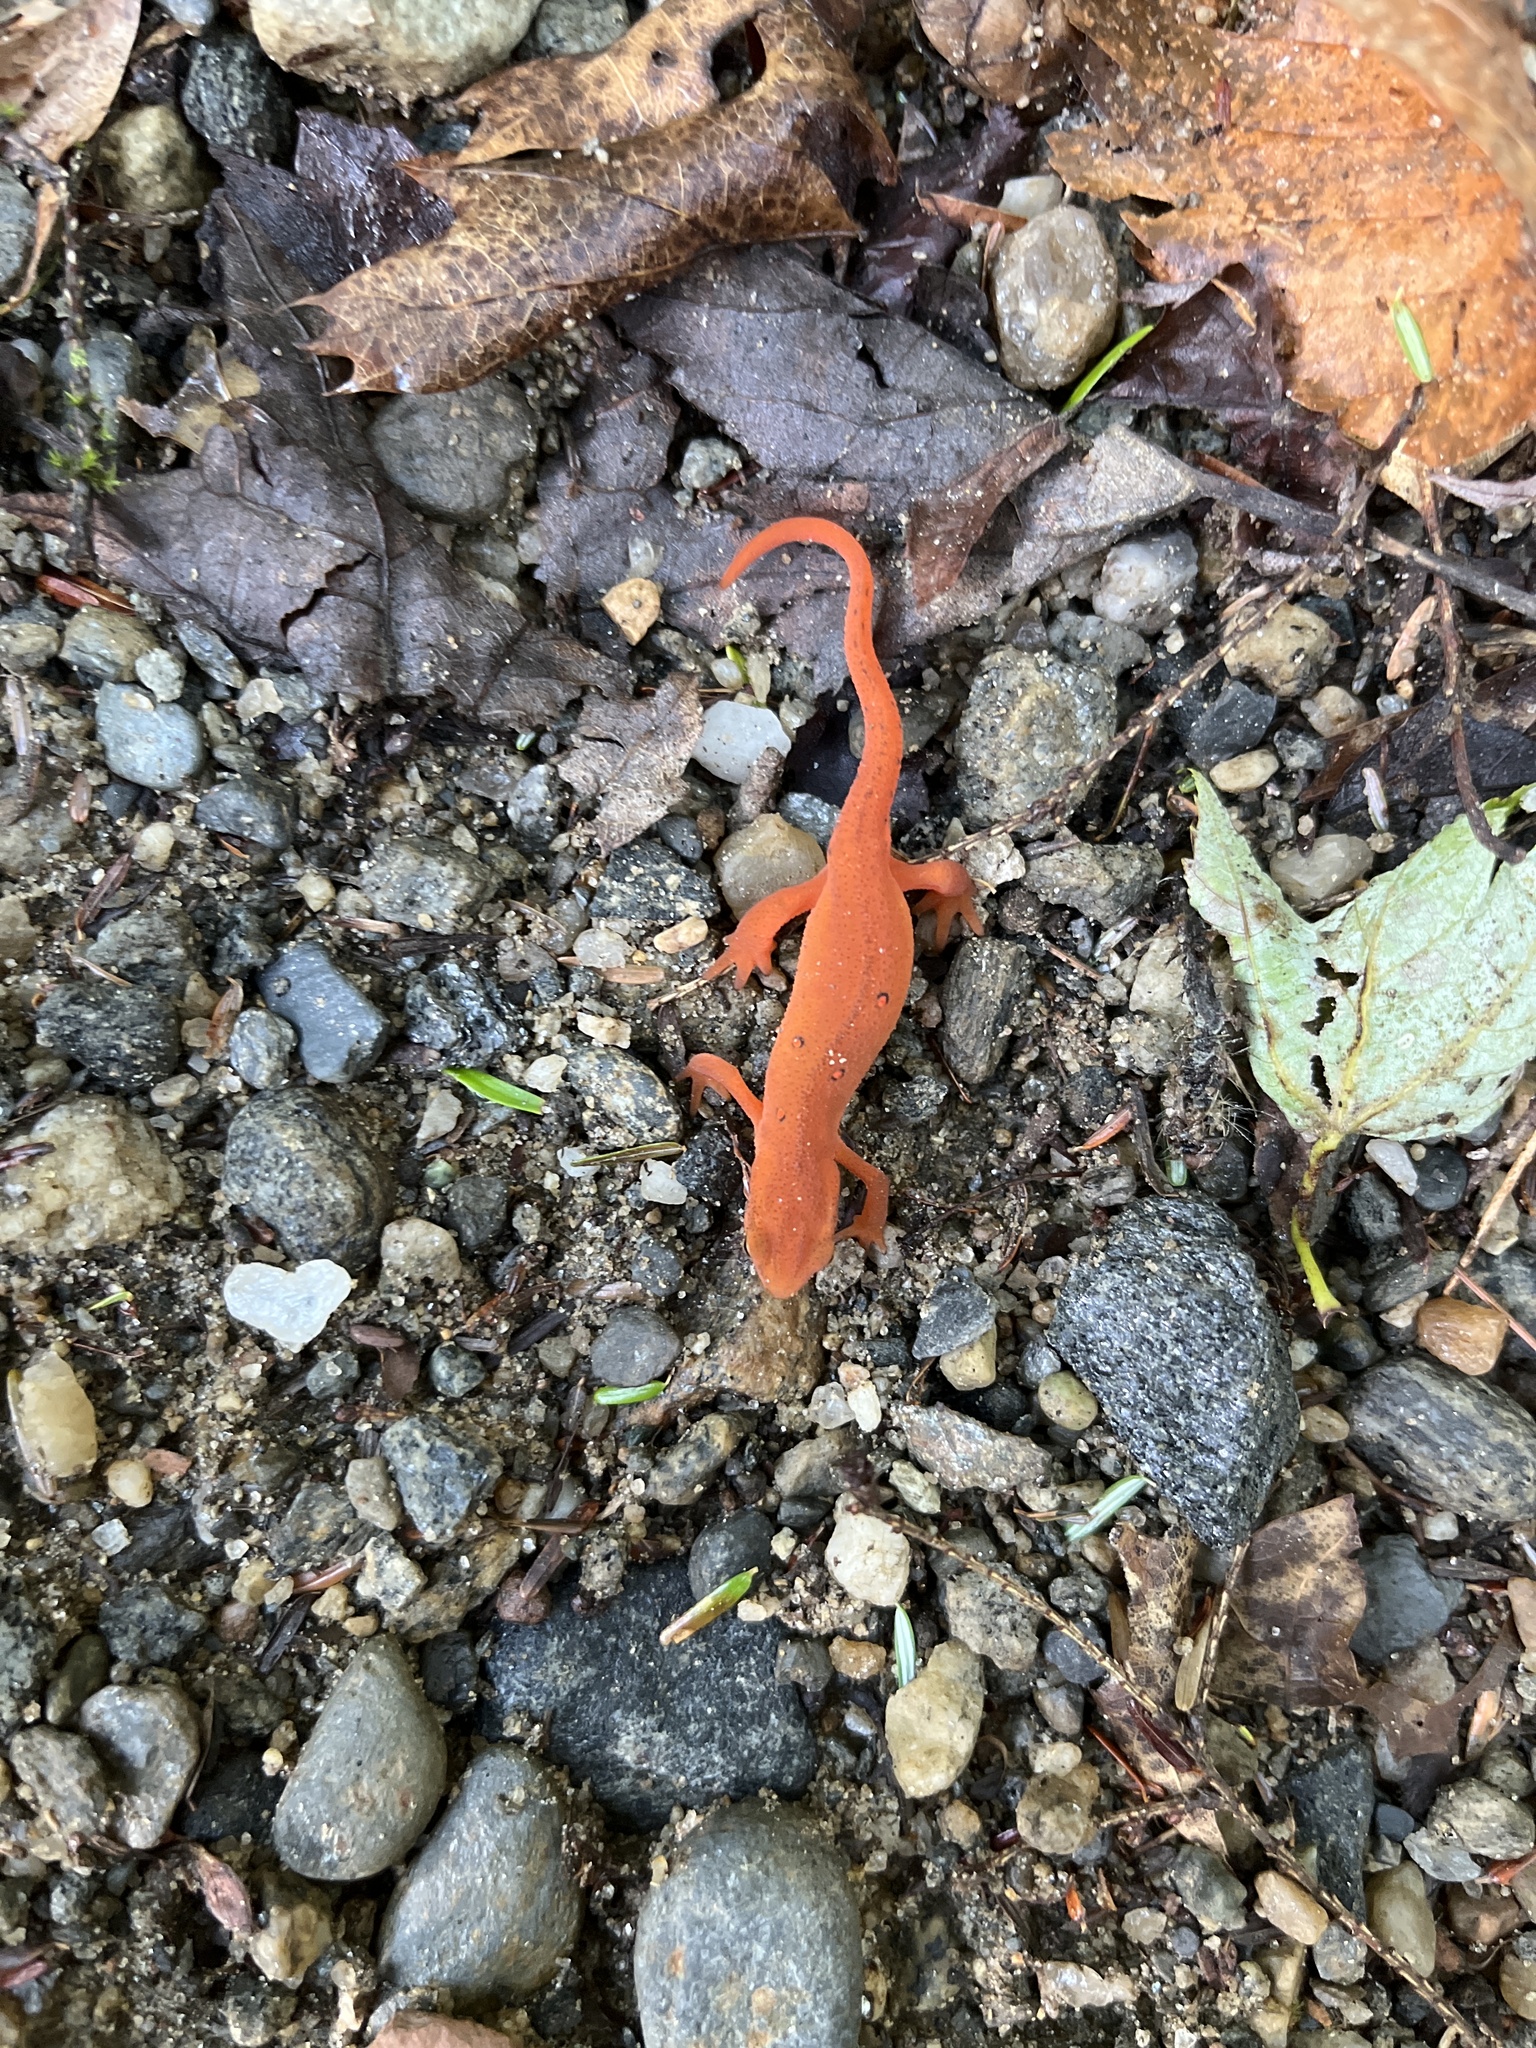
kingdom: Animalia
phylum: Chordata
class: Amphibia
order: Caudata
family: Salamandridae
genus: Notophthalmus
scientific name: Notophthalmus viridescens
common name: Eastern newt
